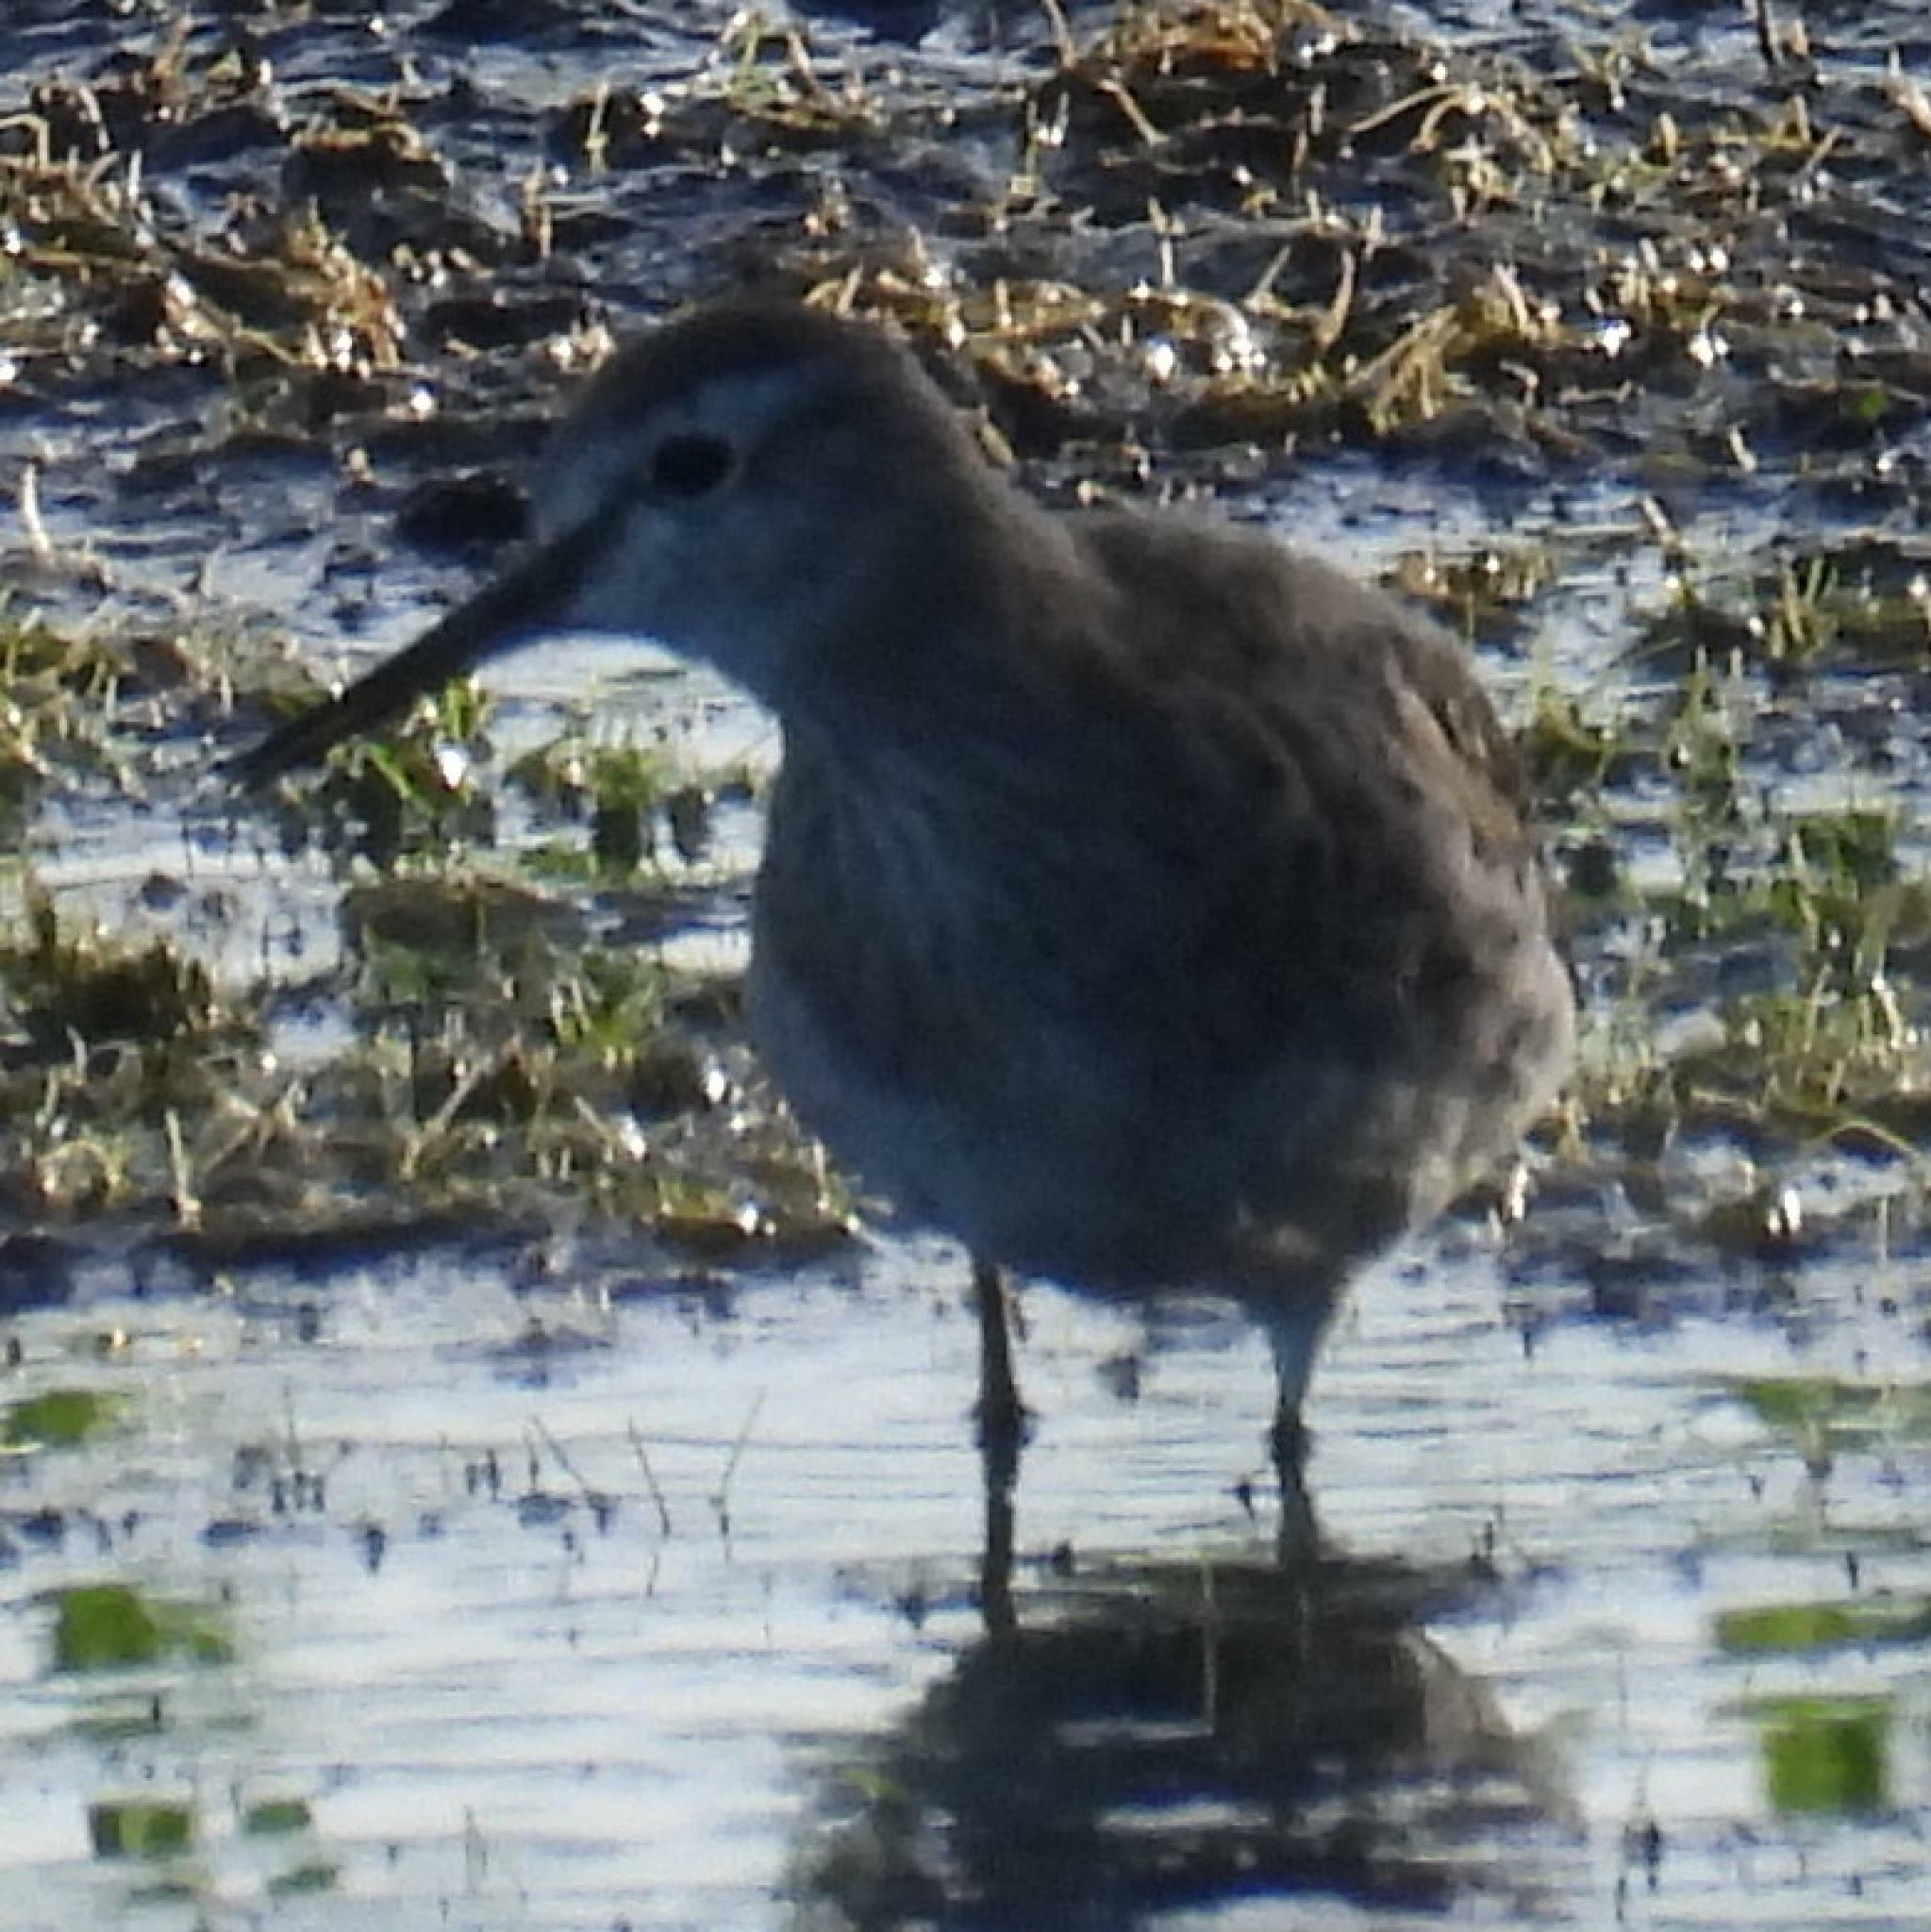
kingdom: Animalia
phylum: Chordata
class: Aves
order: Charadriiformes
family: Scolopacidae
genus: Tringa
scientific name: Tringa glareola
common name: Wood sandpiper
